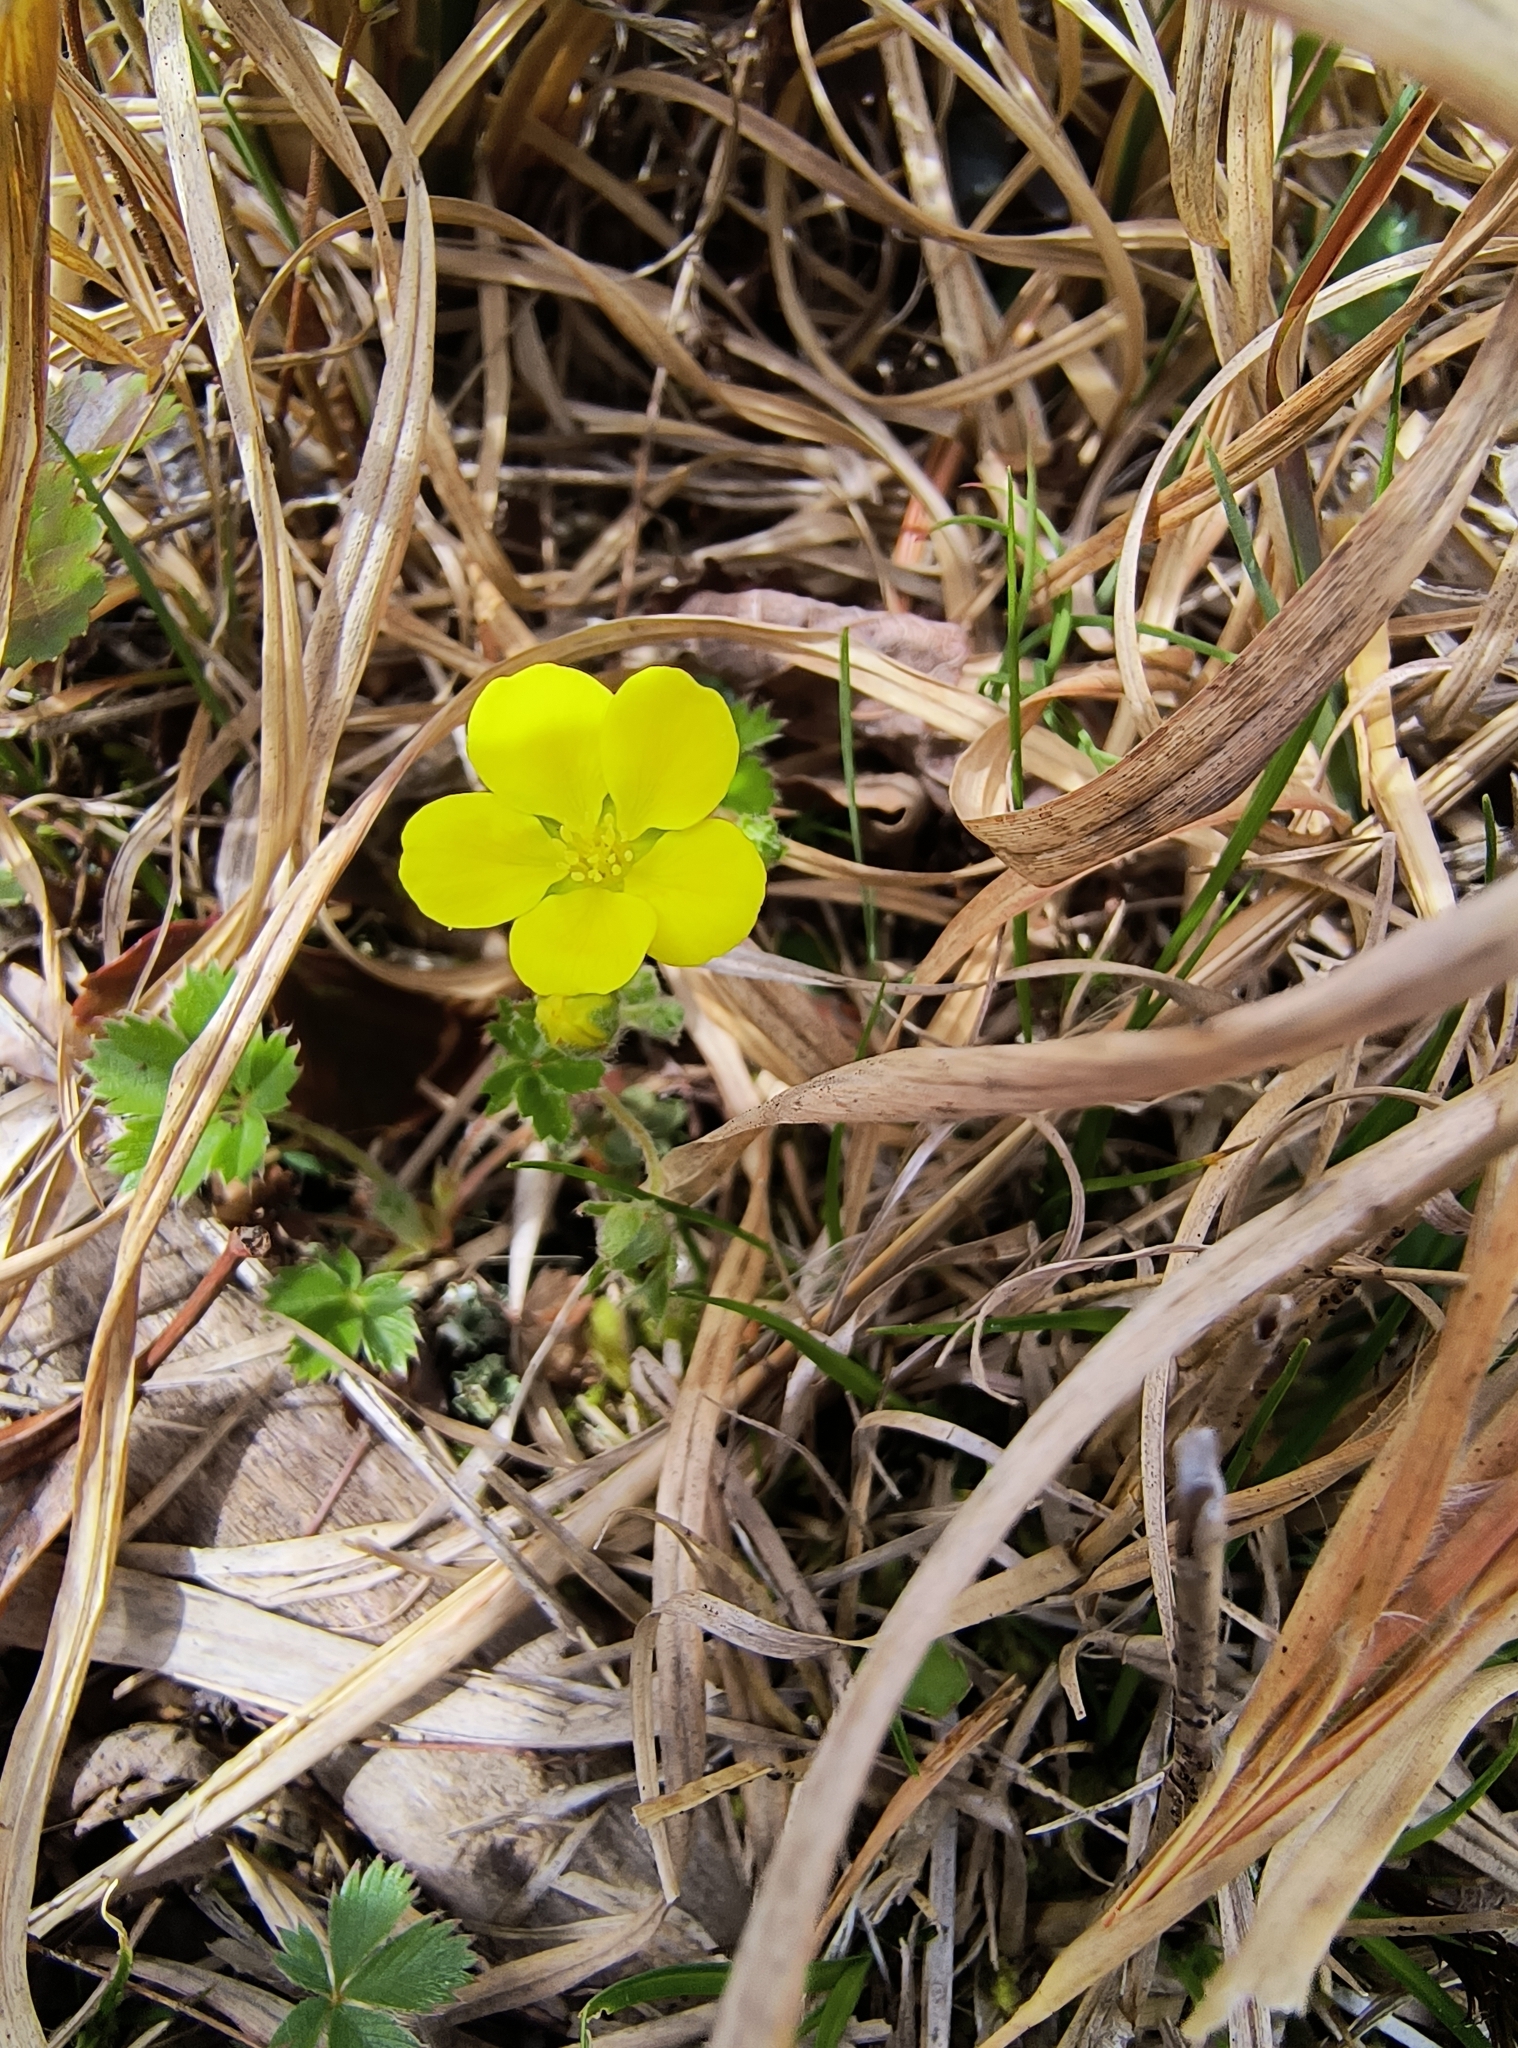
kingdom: Plantae
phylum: Tracheophyta
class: Magnoliopsida
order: Rosales
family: Rosaceae
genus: Potentilla
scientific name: Potentilla canadensis
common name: Canada cinquefoil
